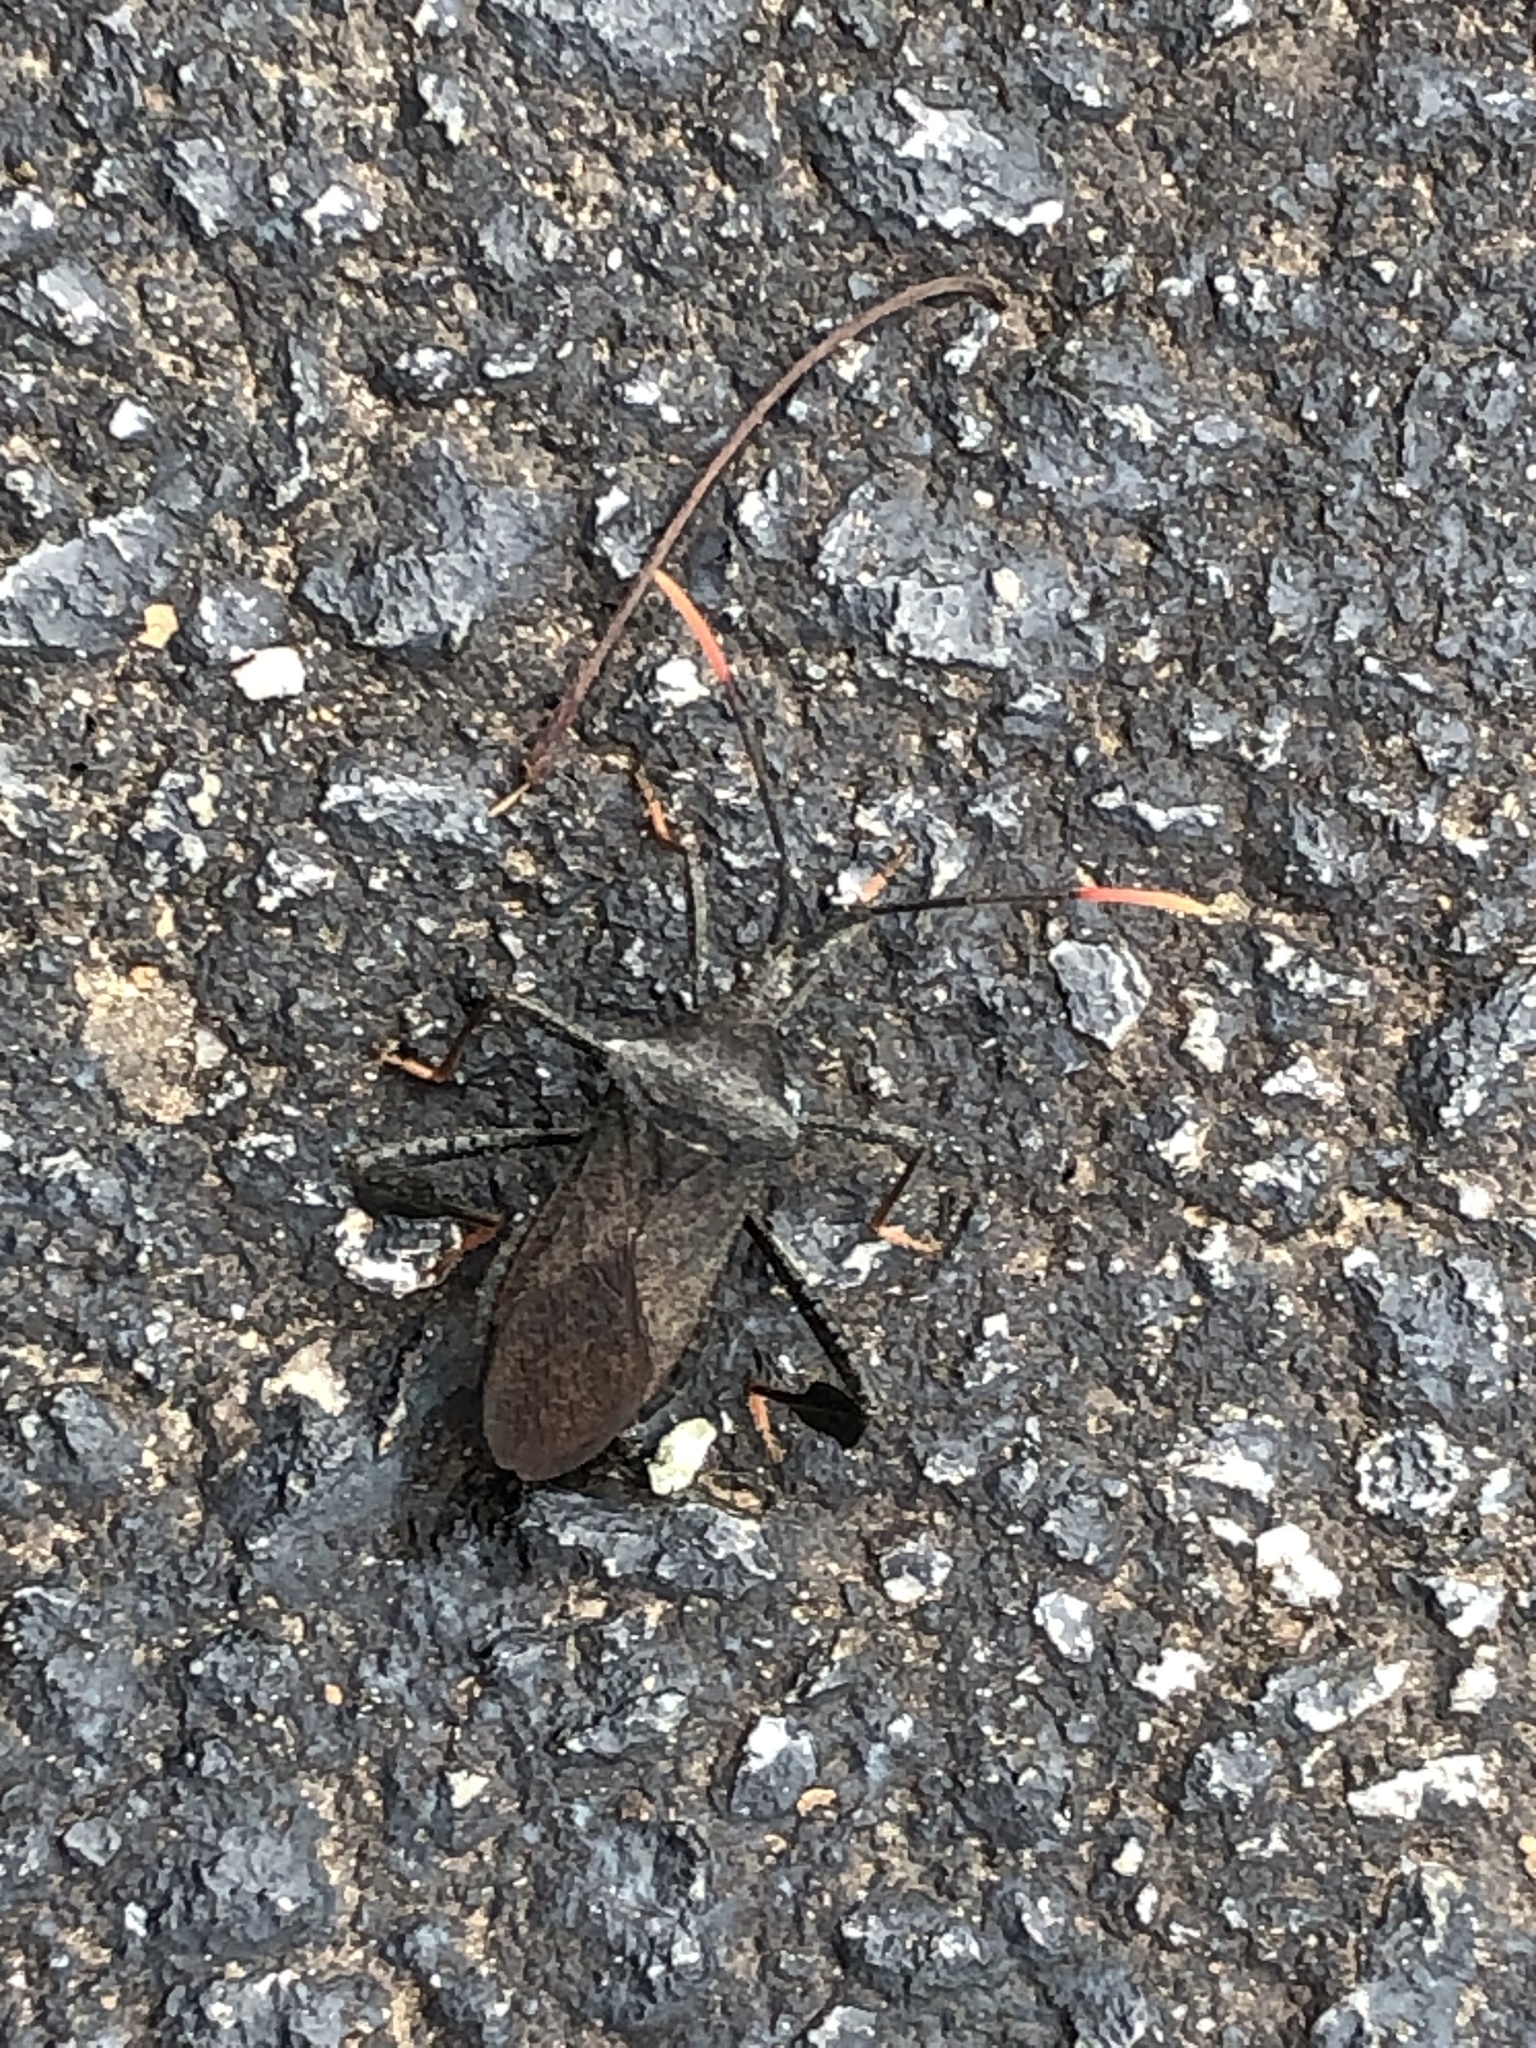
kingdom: Animalia
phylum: Arthropoda
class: Insecta
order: Hemiptera
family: Coreidae
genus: Acanthocephala
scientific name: Acanthocephala terminalis
